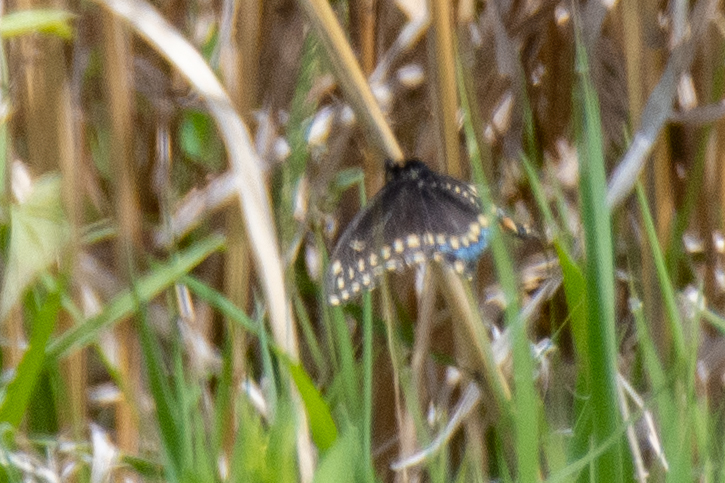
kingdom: Animalia
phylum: Arthropoda
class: Insecta
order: Lepidoptera
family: Papilionidae
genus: Papilio
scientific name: Papilio polyxenes
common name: Black swallowtail
